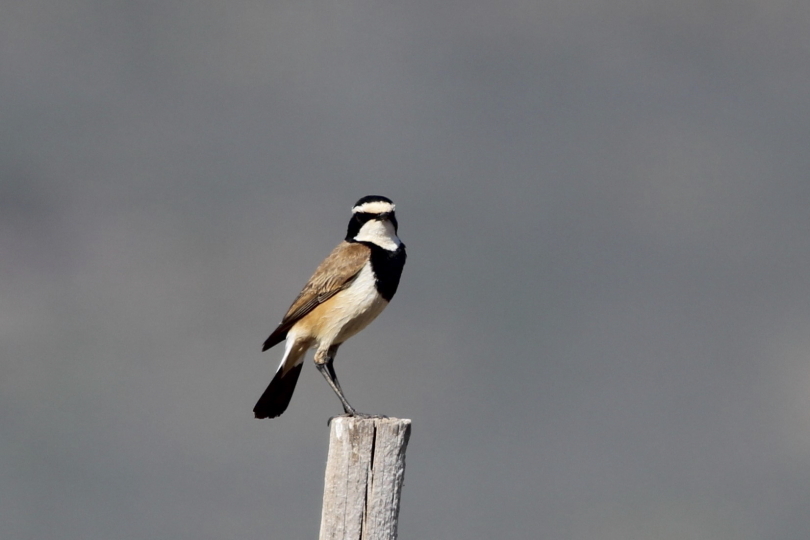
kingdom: Animalia
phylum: Chordata
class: Aves
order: Passeriformes
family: Muscicapidae
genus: Oenanthe
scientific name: Oenanthe pileata
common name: Capped wheatear
